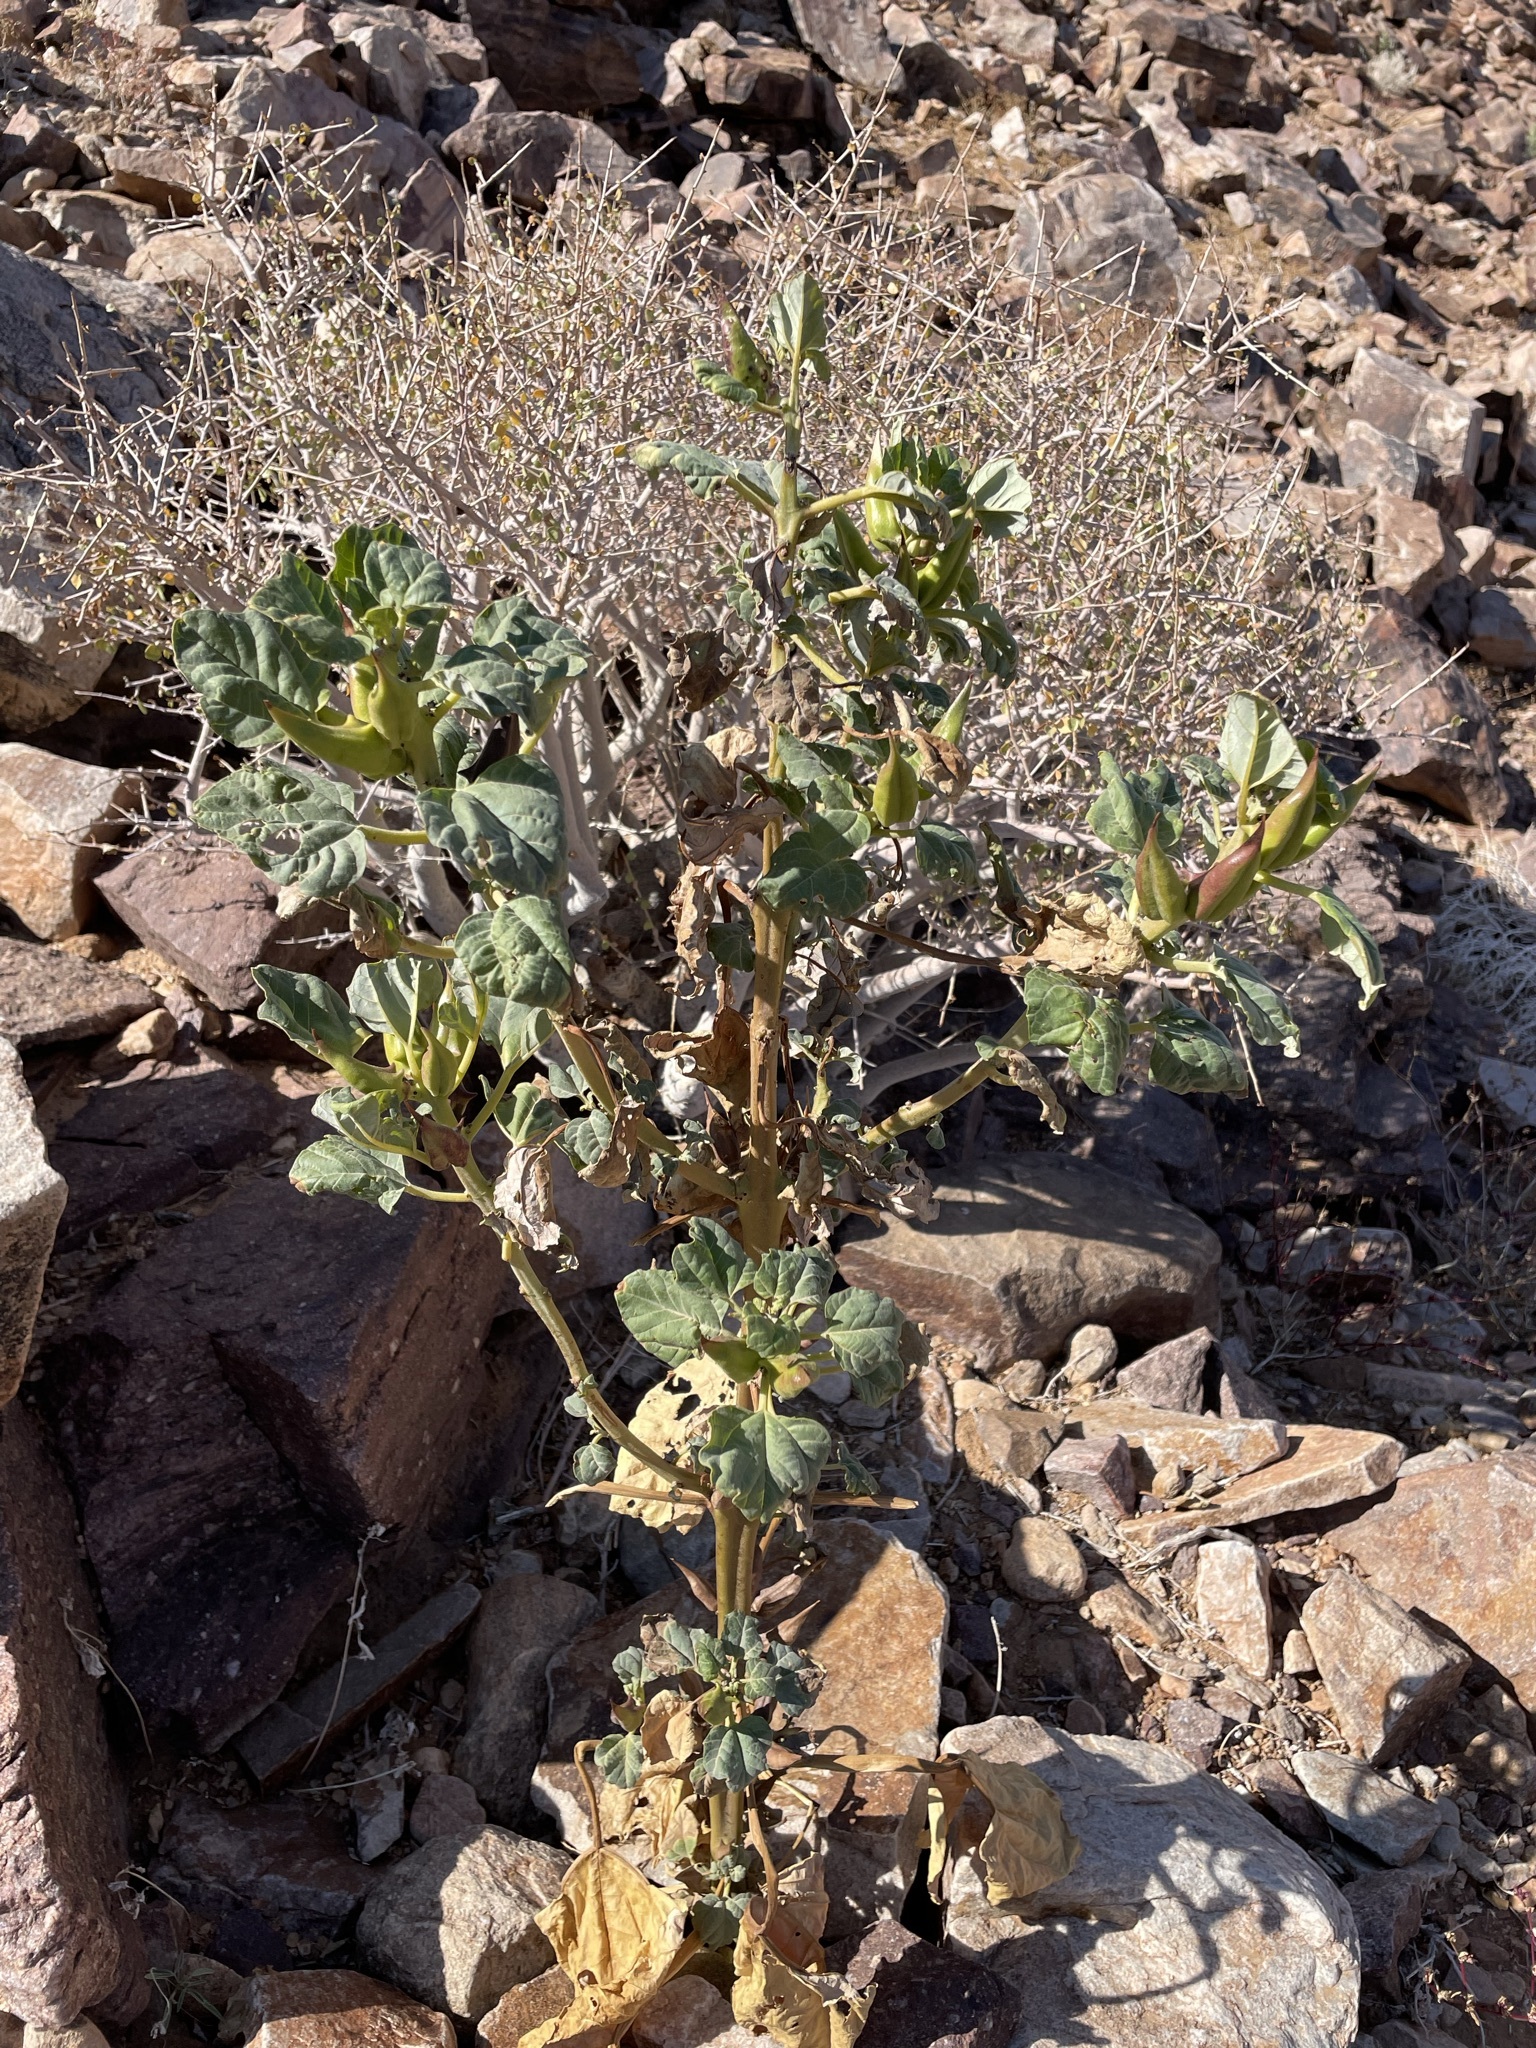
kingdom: Plantae
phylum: Tracheophyta
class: Magnoliopsida
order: Lamiales
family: Pedaliaceae
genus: Rogeria
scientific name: Rogeria longiflora
